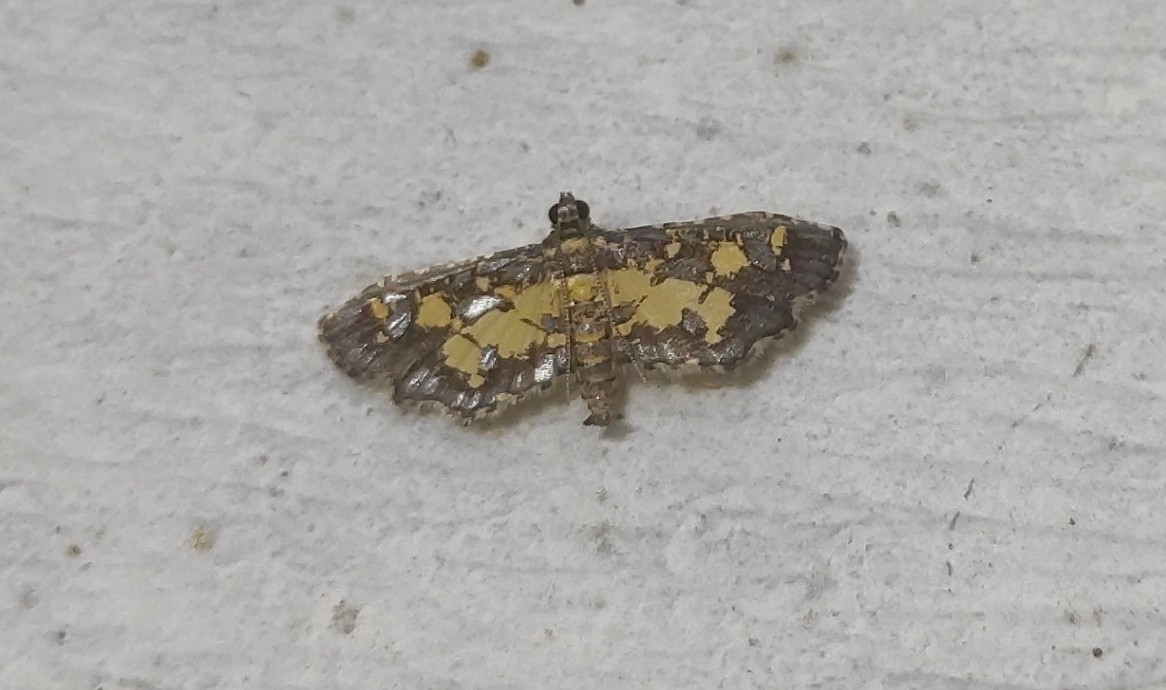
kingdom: Animalia
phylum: Arthropoda
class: Insecta
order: Lepidoptera
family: Crambidae
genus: Eurrhyparodes
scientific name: Eurrhyparodes bracteolalis
